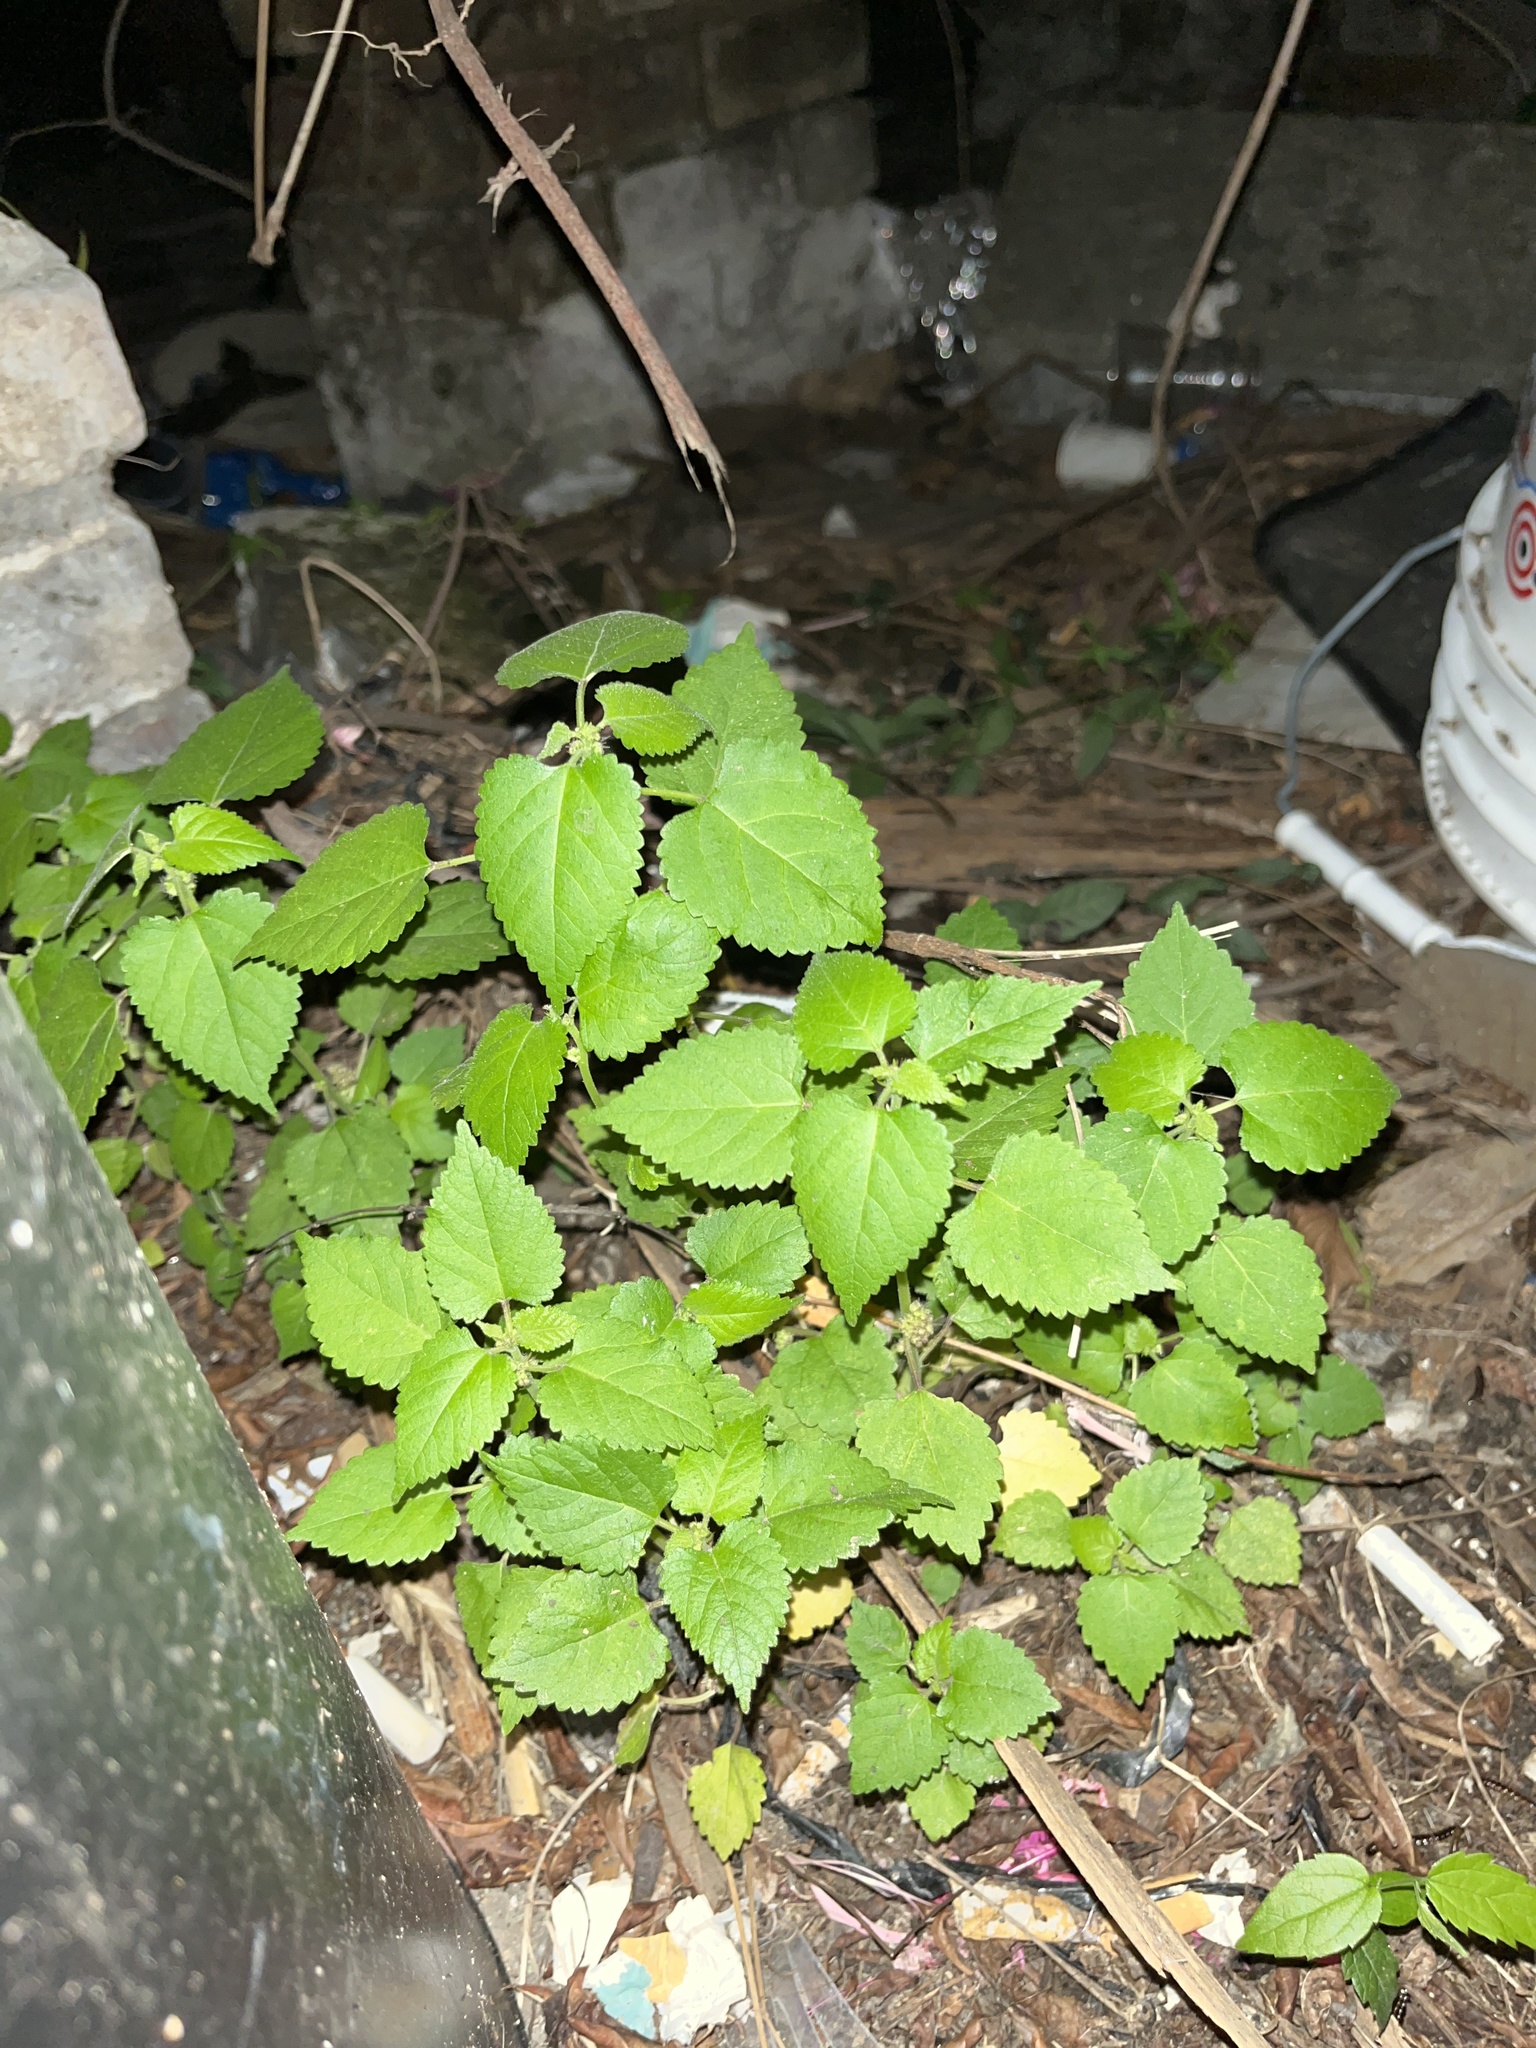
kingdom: Plantae
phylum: Tracheophyta
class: Magnoliopsida
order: Rosales
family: Moraceae
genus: Fatoua
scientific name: Fatoua villosa
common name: Hairy crabweed
